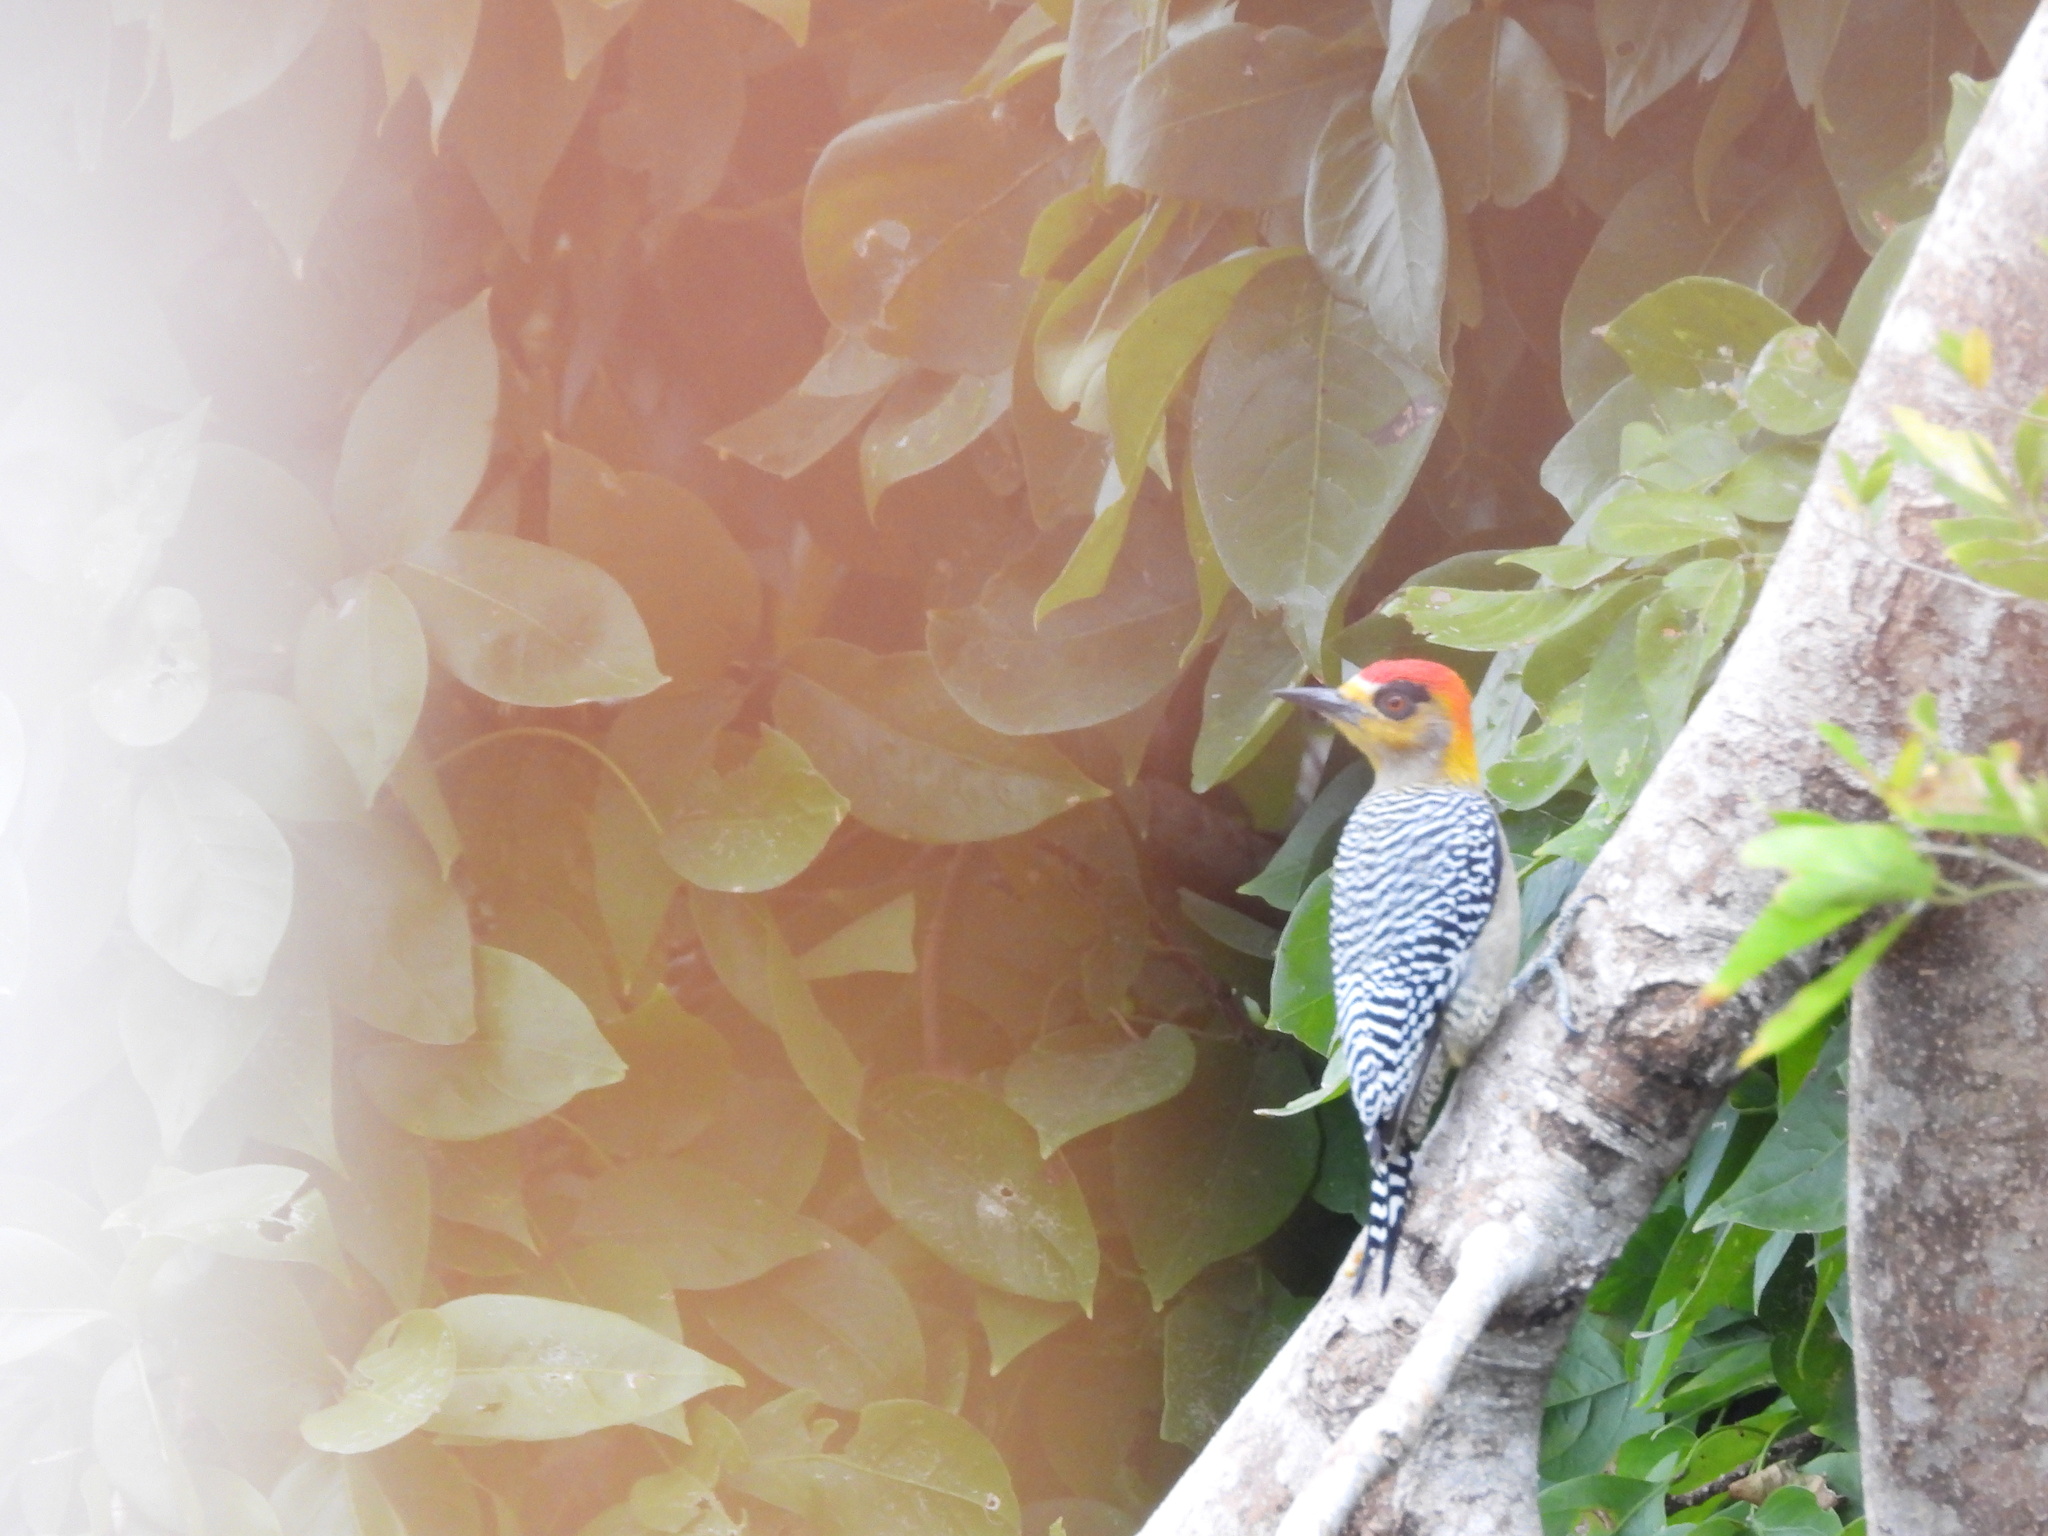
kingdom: Animalia
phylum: Chordata
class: Aves
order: Piciformes
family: Picidae
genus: Melanerpes
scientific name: Melanerpes chrysogenys
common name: Golden-cheeked woodpecker
